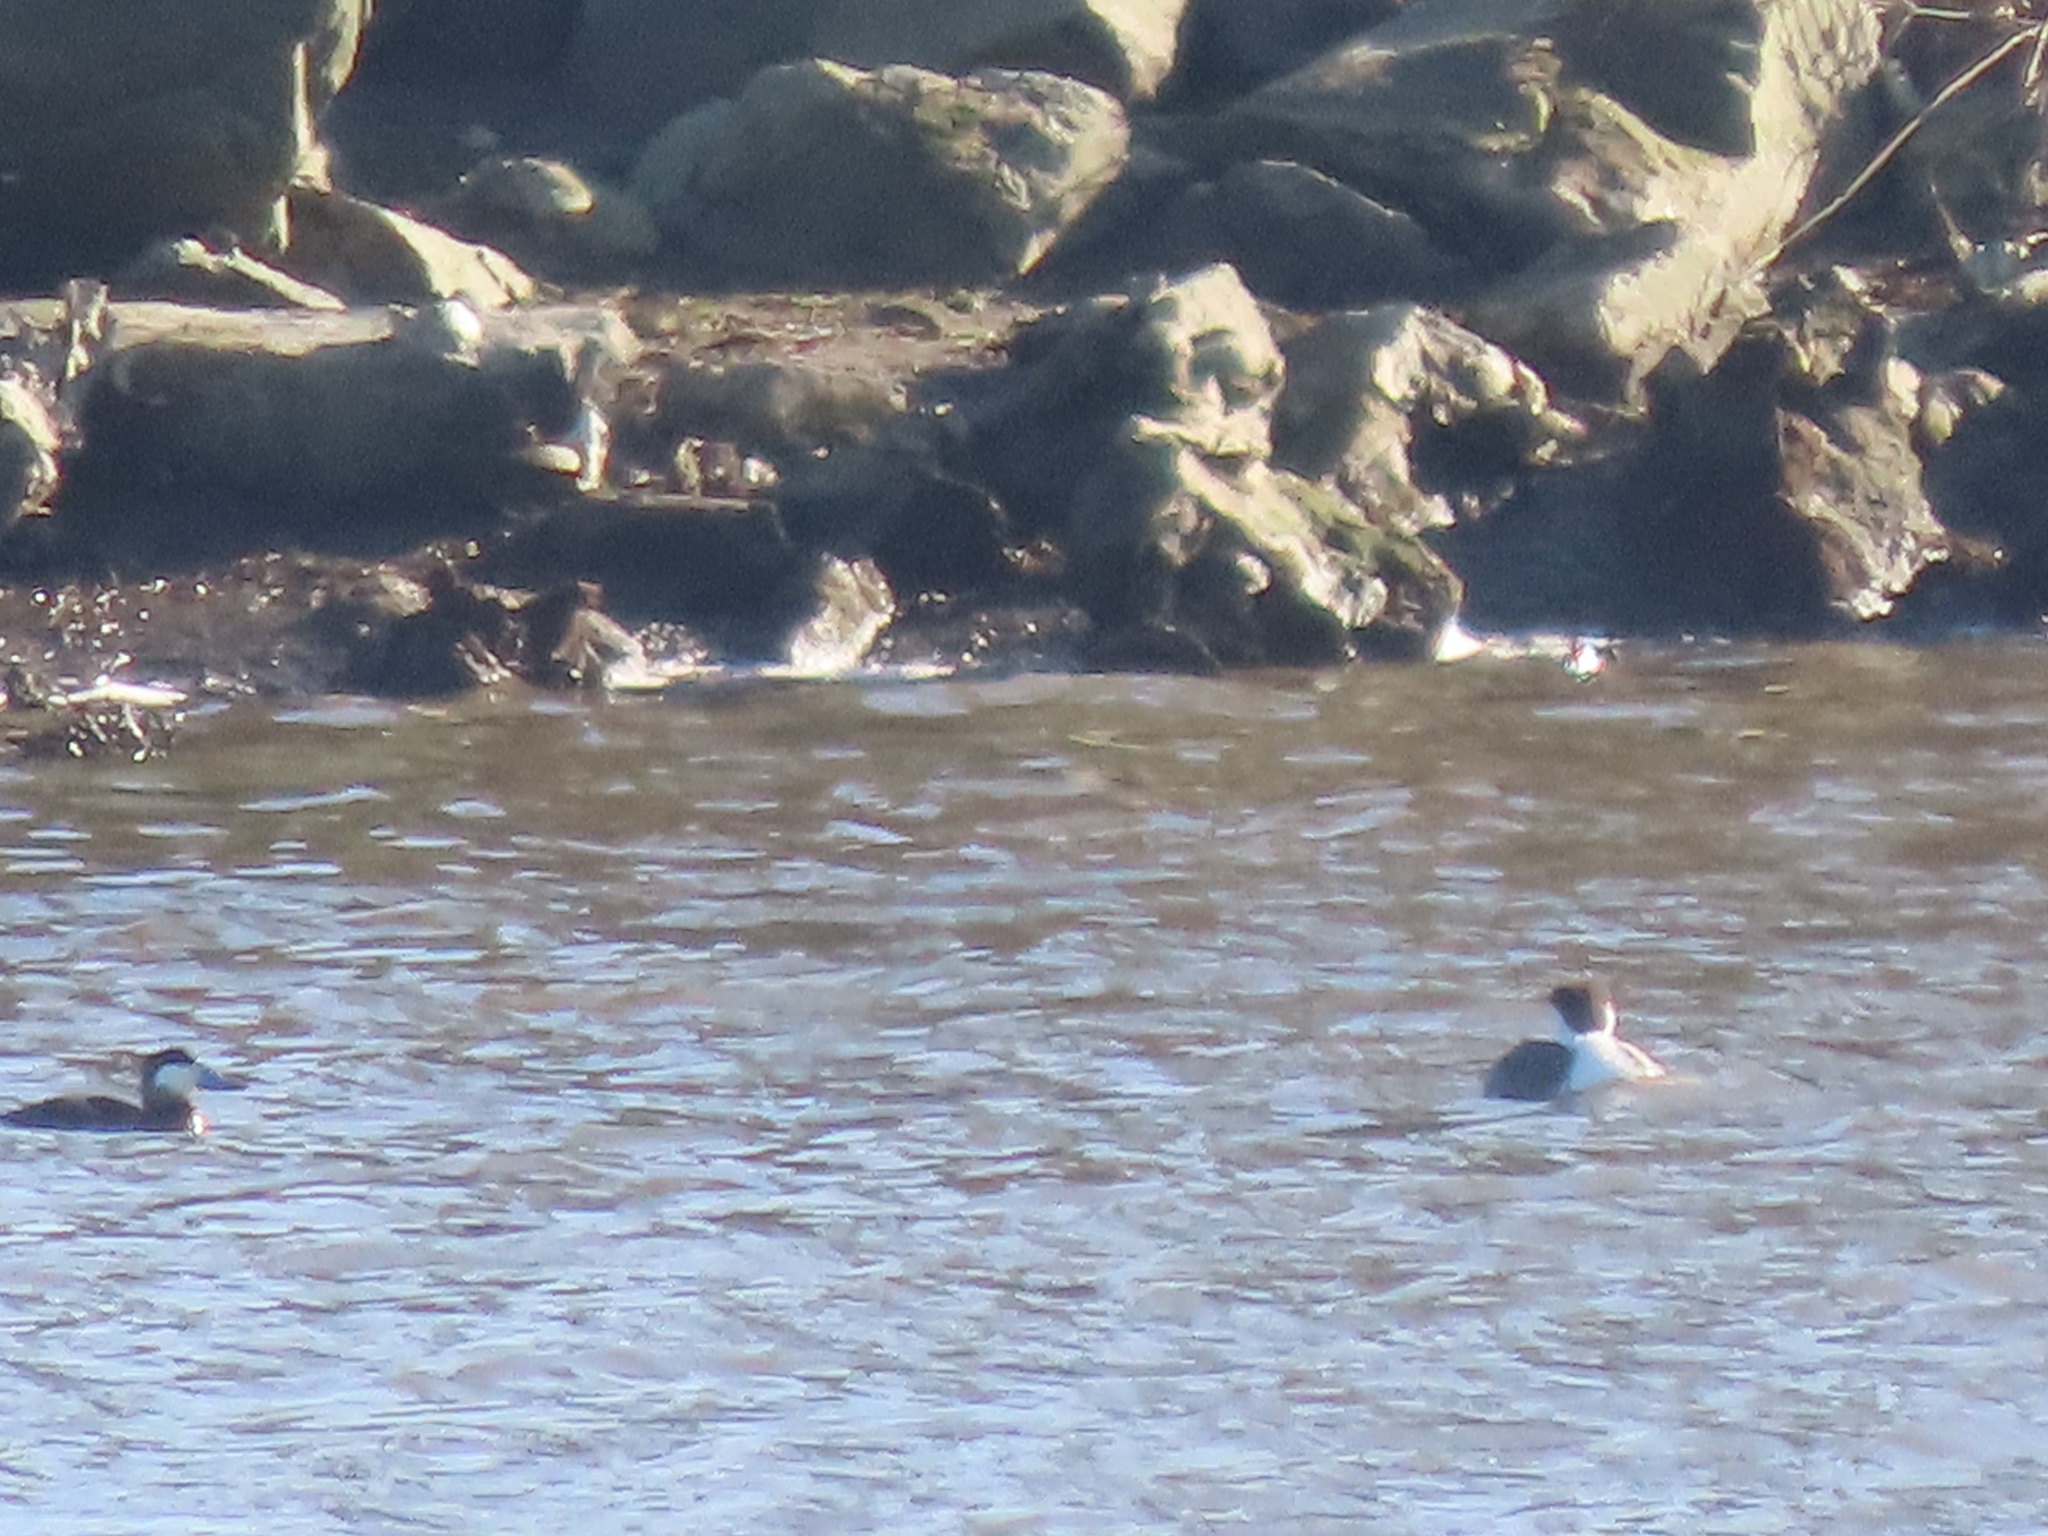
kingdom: Animalia
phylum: Chordata
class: Aves
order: Podicipediformes
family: Podicipedidae
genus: Aechmophorus
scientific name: Aechmophorus occidentalis
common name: Western grebe
